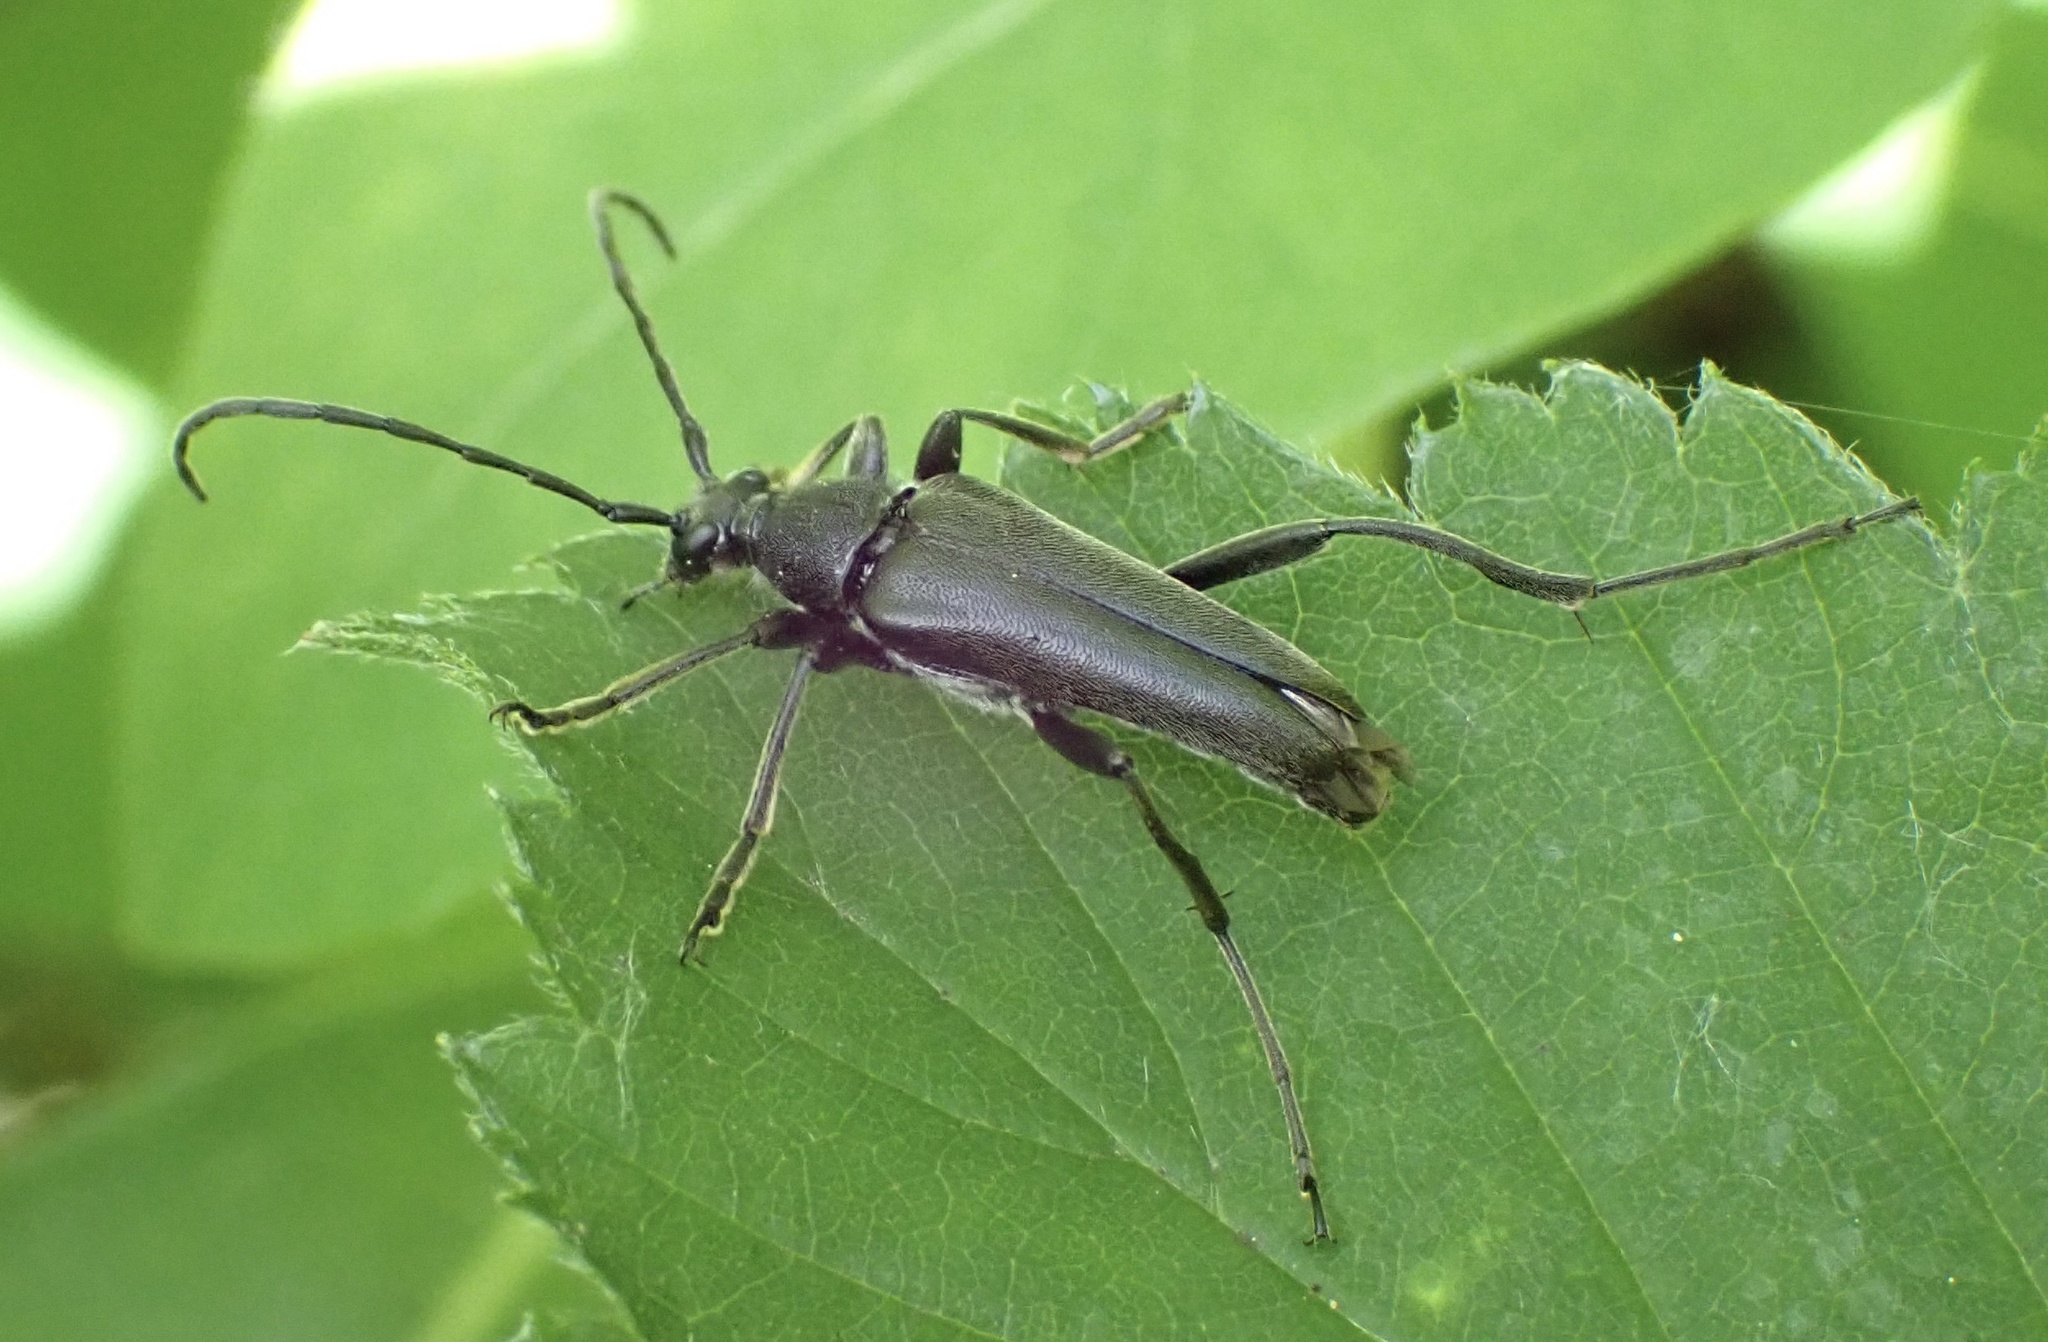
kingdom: Animalia
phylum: Arthropoda
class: Insecta
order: Coleoptera
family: Cerambycidae
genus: Leptura
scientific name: Leptura aethiops
